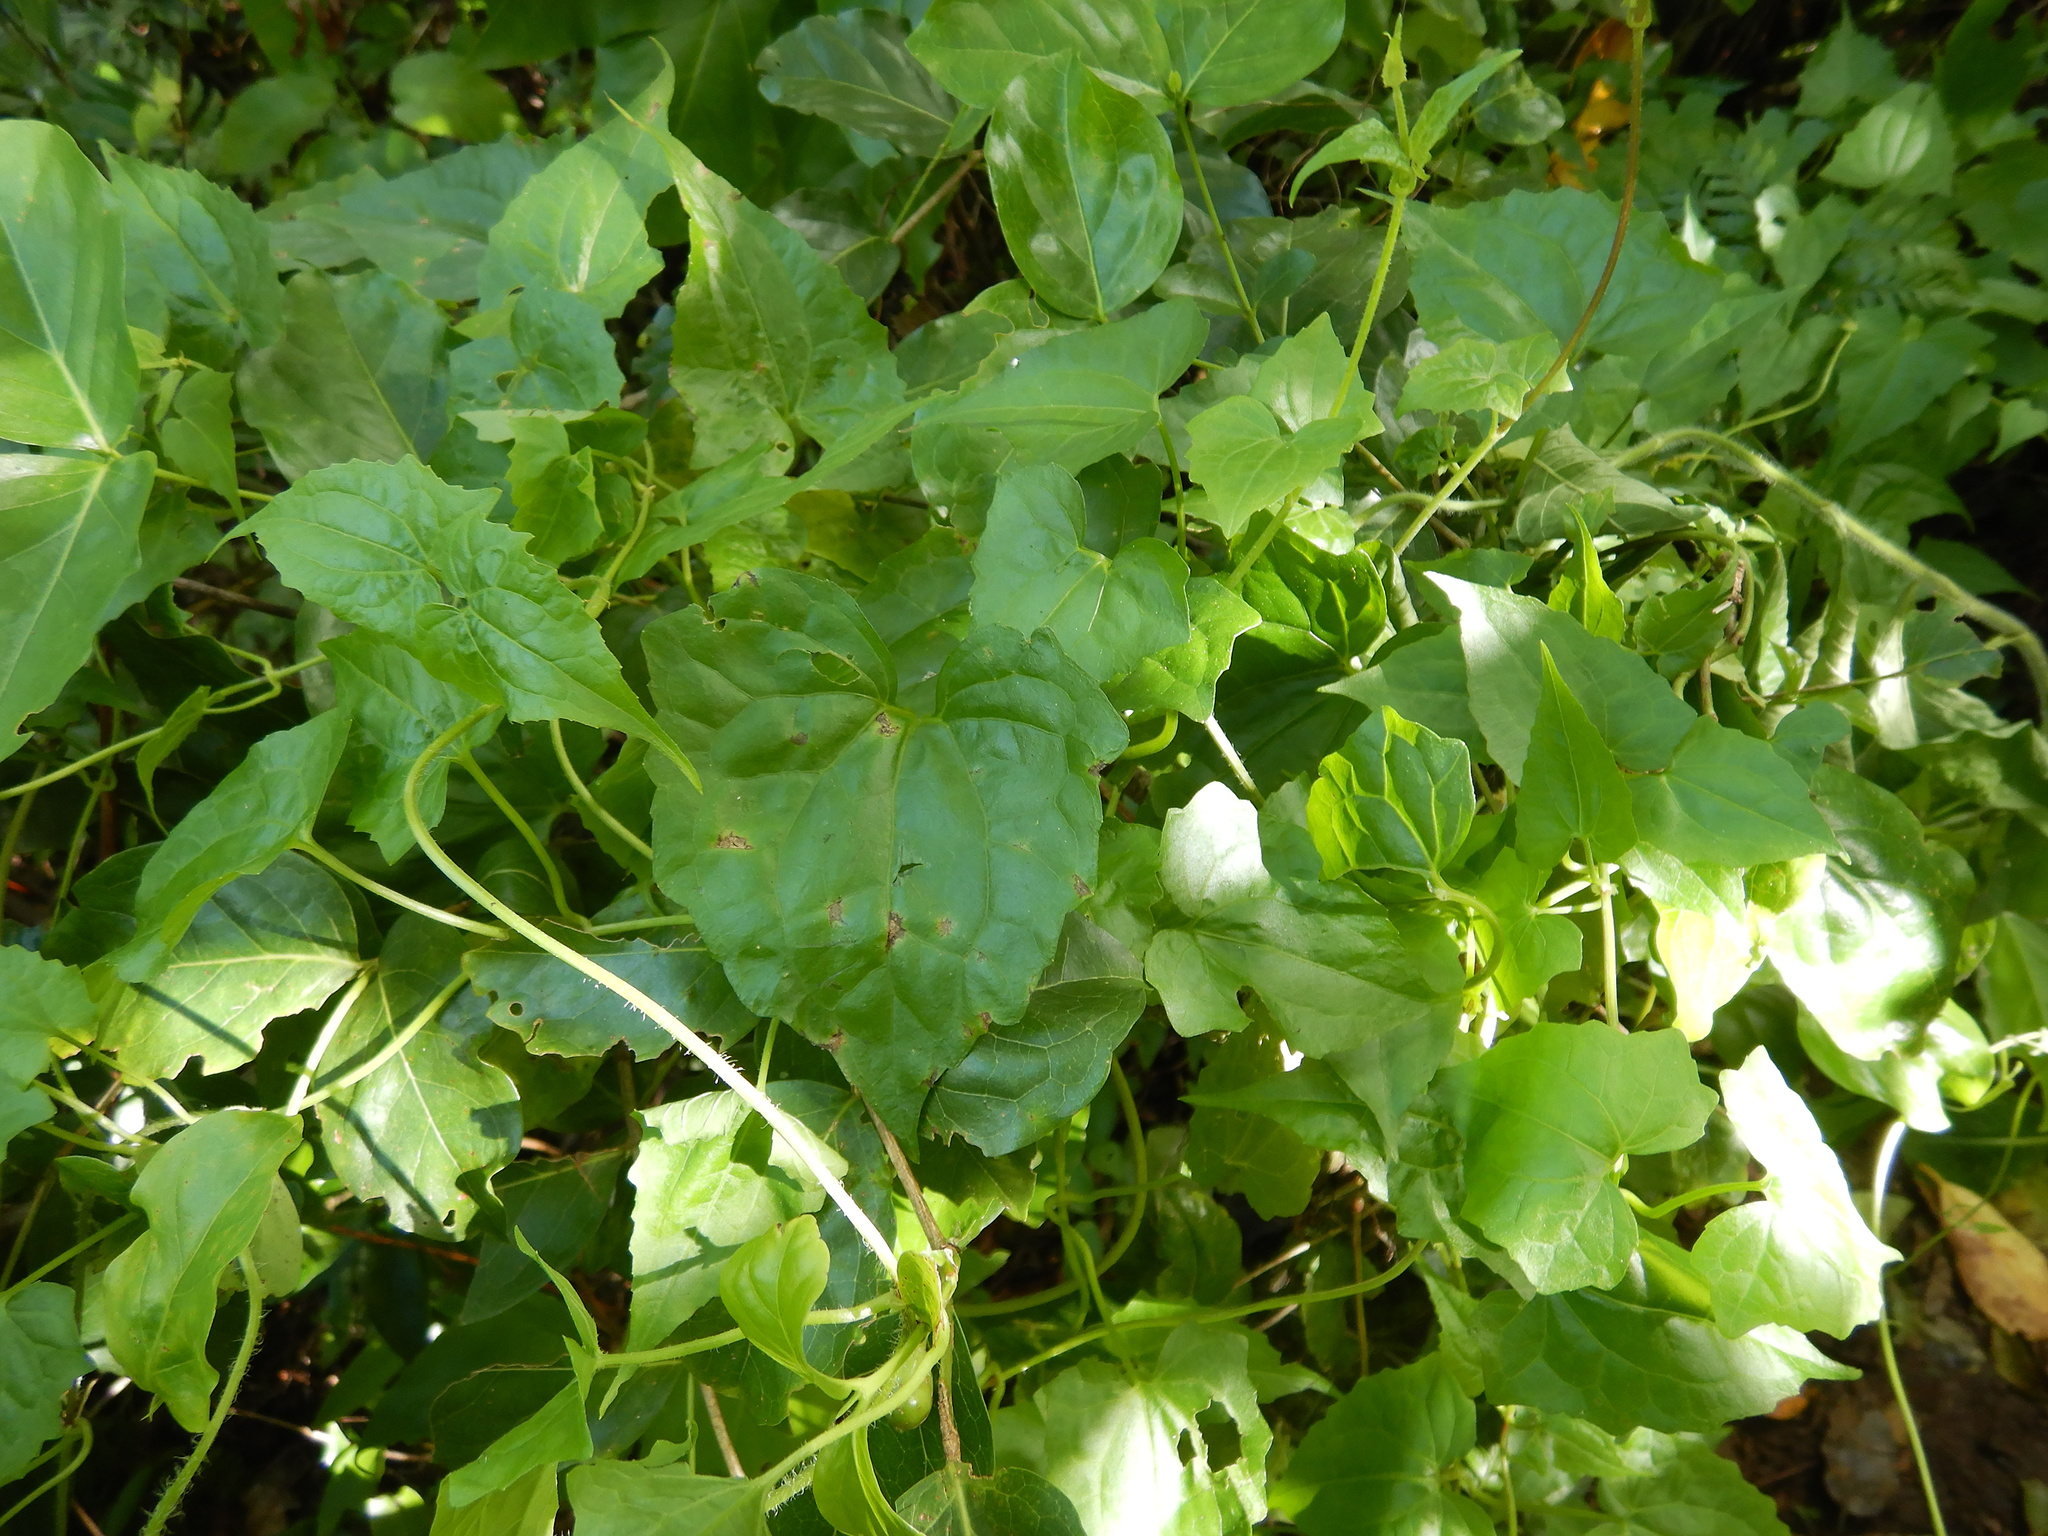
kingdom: Plantae
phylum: Tracheophyta
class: Magnoliopsida
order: Asterales
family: Asteraceae
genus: Mikania
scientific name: Mikania micrantha
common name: Mile-a-minute
